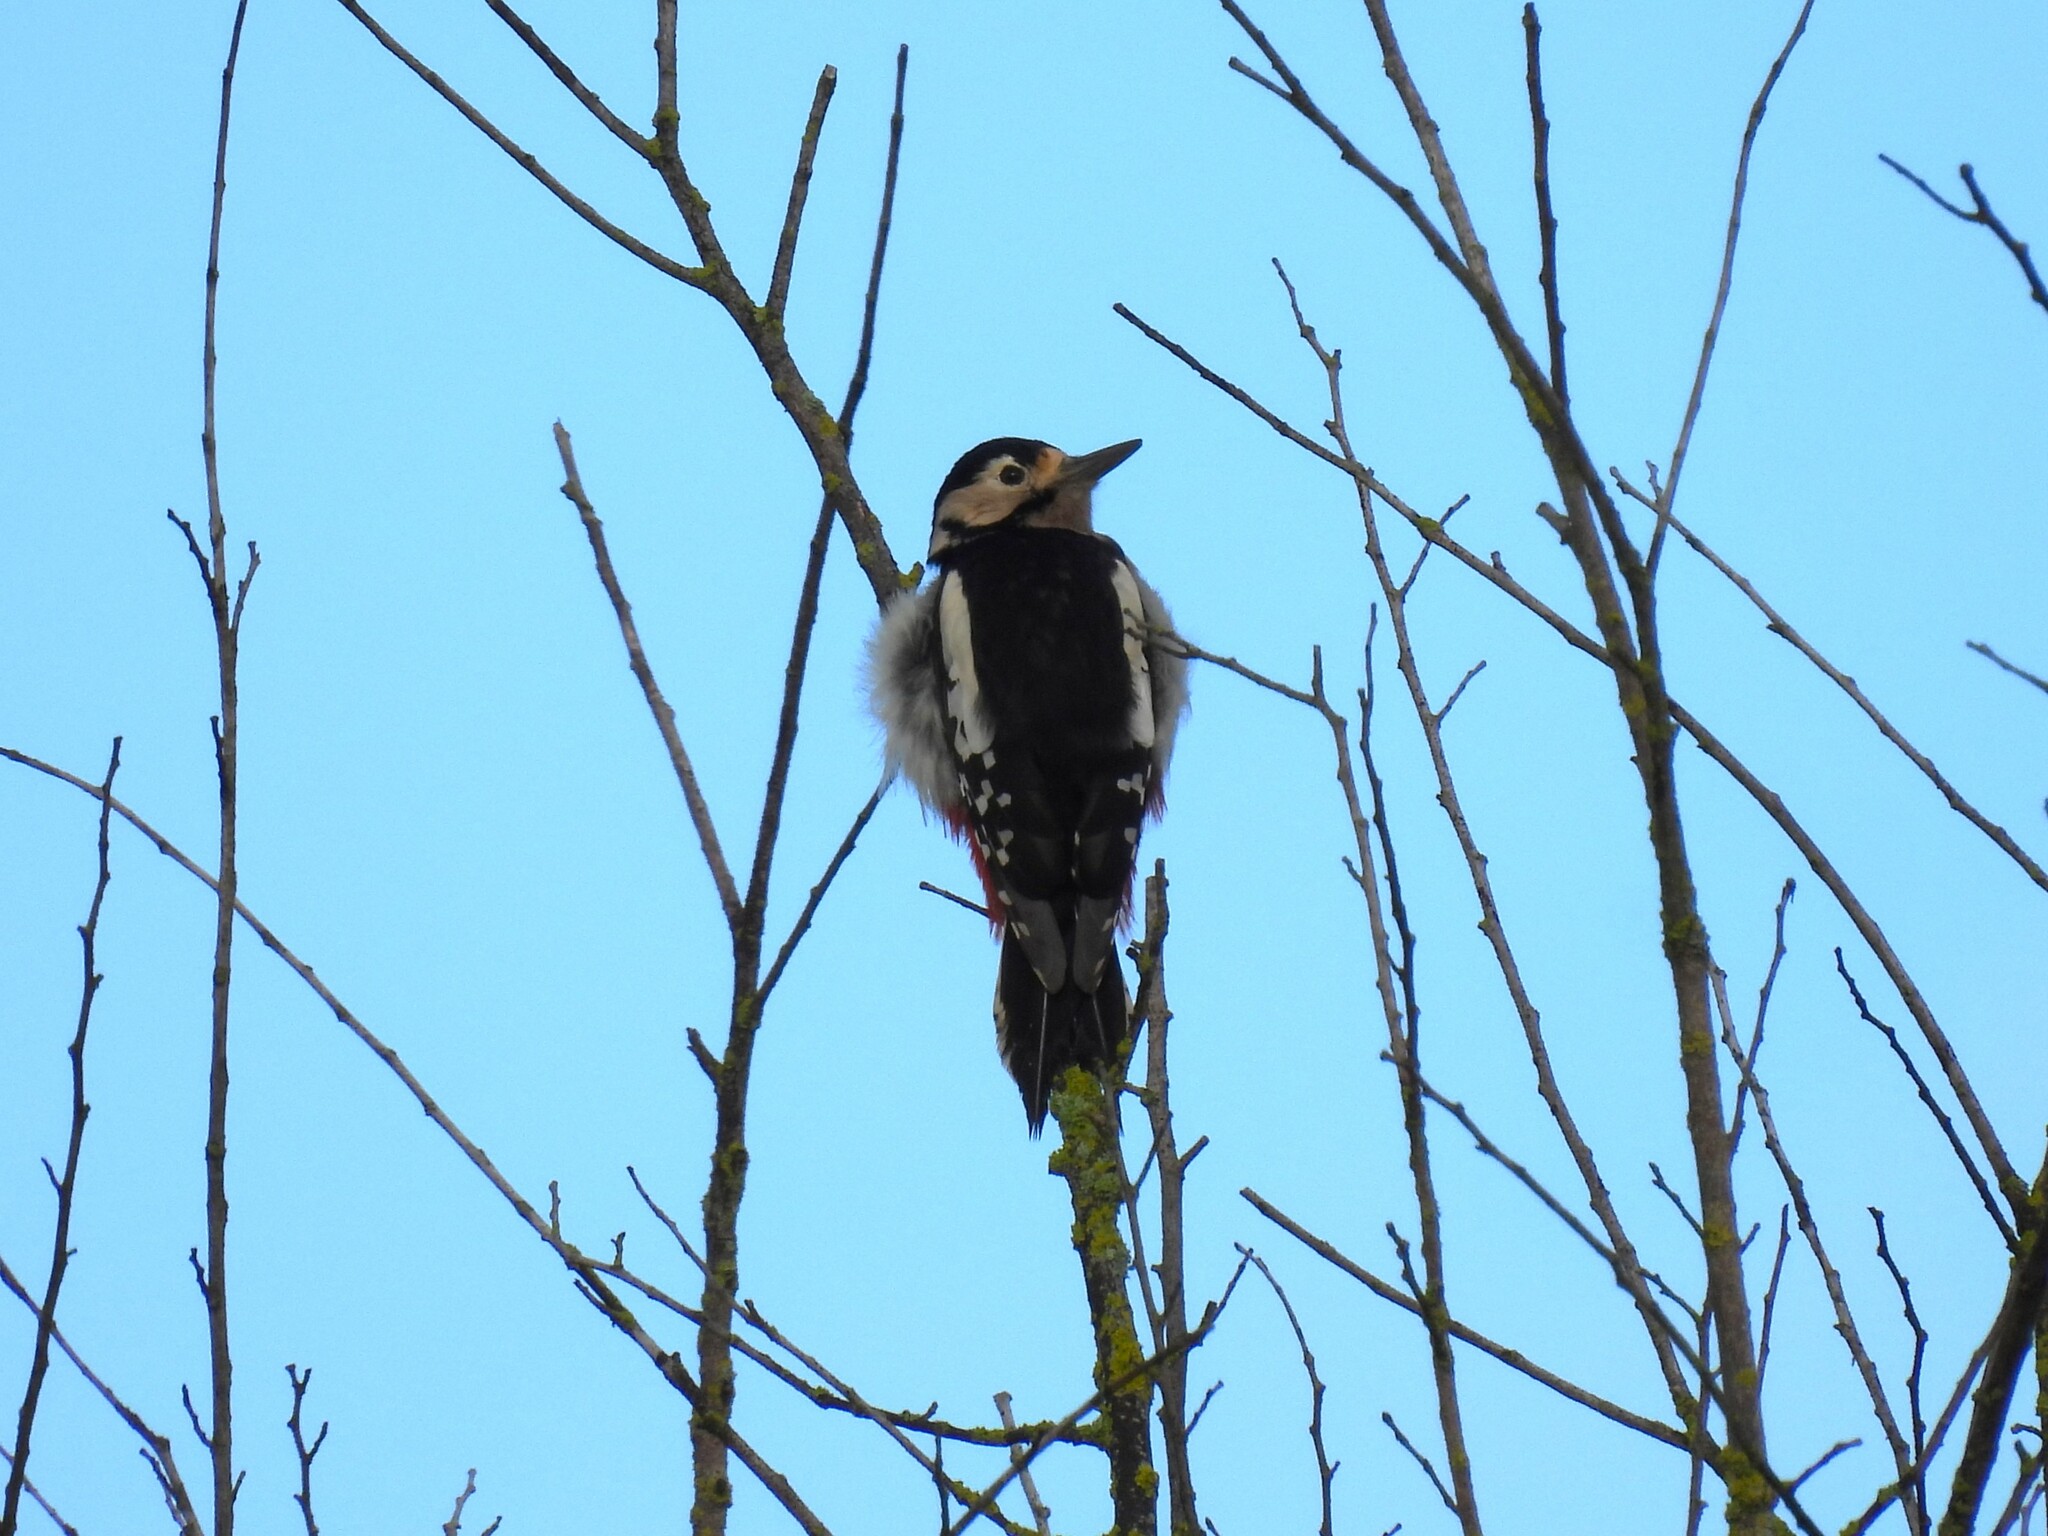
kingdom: Animalia
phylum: Chordata
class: Aves
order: Piciformes
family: Picidae
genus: Dendrocopos
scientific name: Dendrocopos major
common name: Great spotted woodpecker
